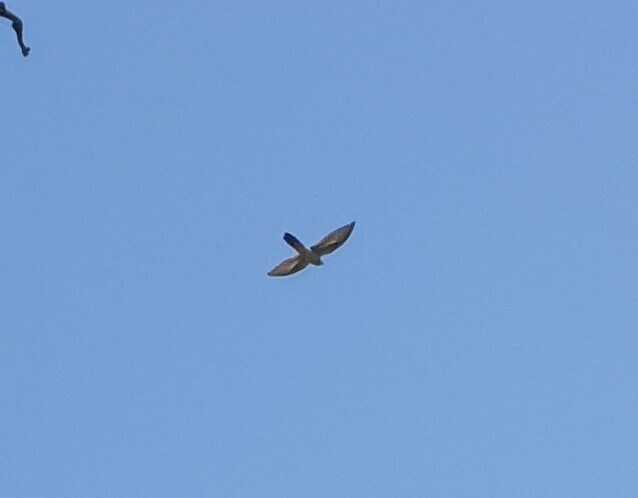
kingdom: Animalia
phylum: Chordata
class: Aves
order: Cuculiformes
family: Cuculidae
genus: Cuculus
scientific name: Cuculus canorus
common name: Common cuckoo
